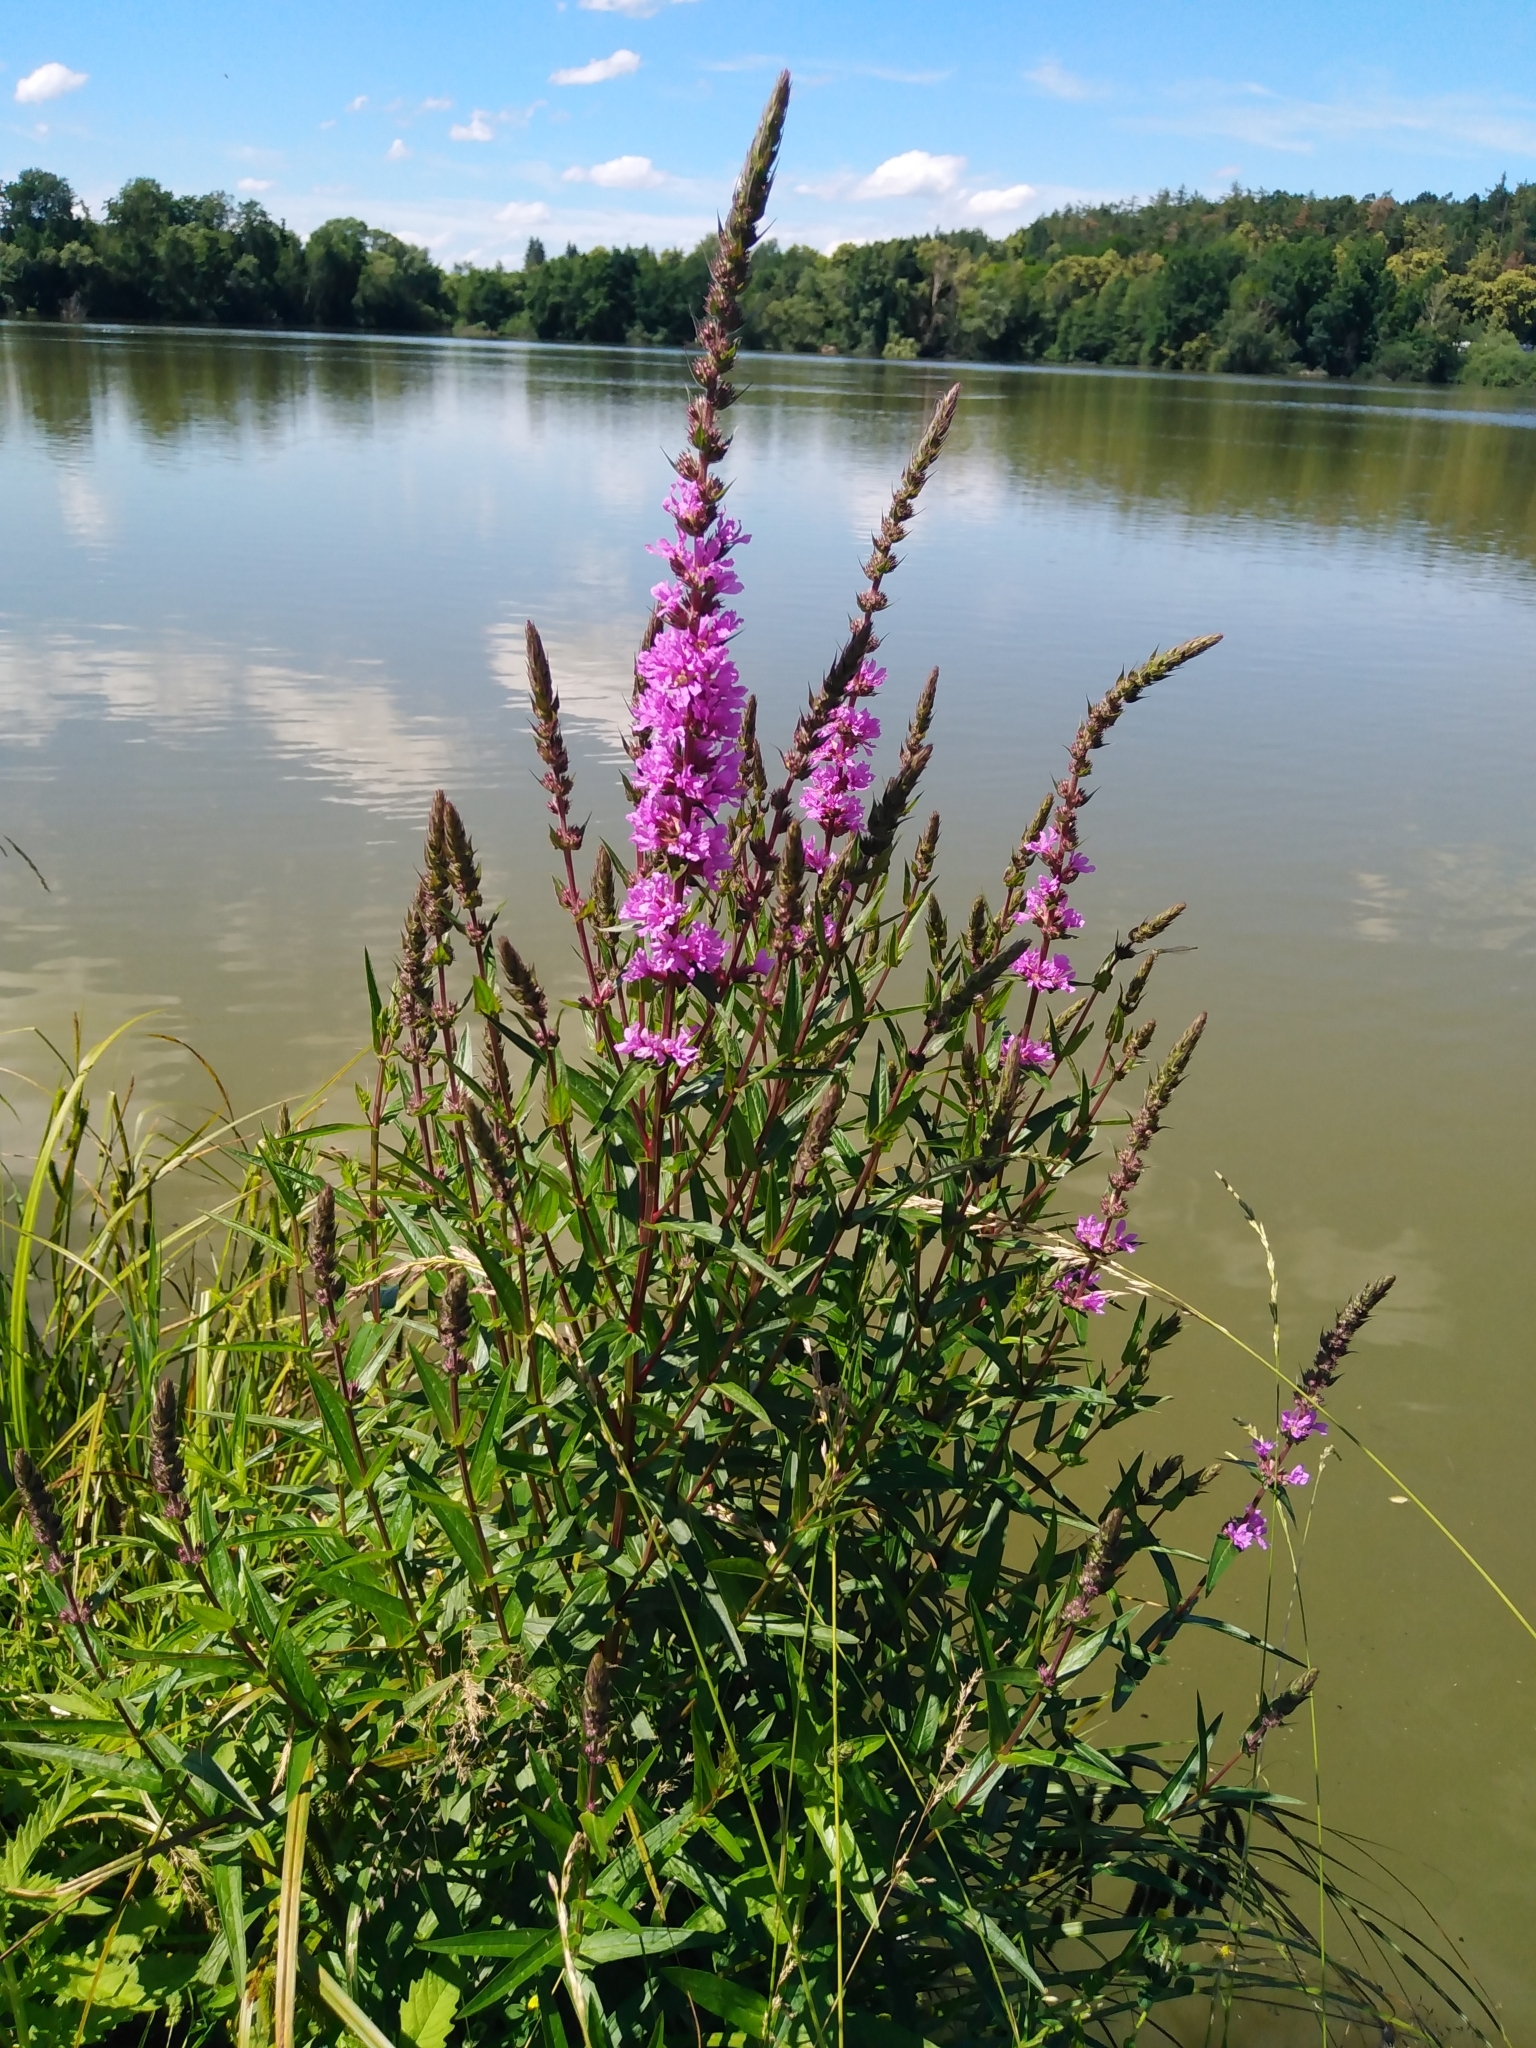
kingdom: Plantae
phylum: Tracheophyta
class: Magnoliopsida
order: Myrtales
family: Lythraceae
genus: Lythrum
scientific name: Lythrum salicaria
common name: Purple loosestrife
